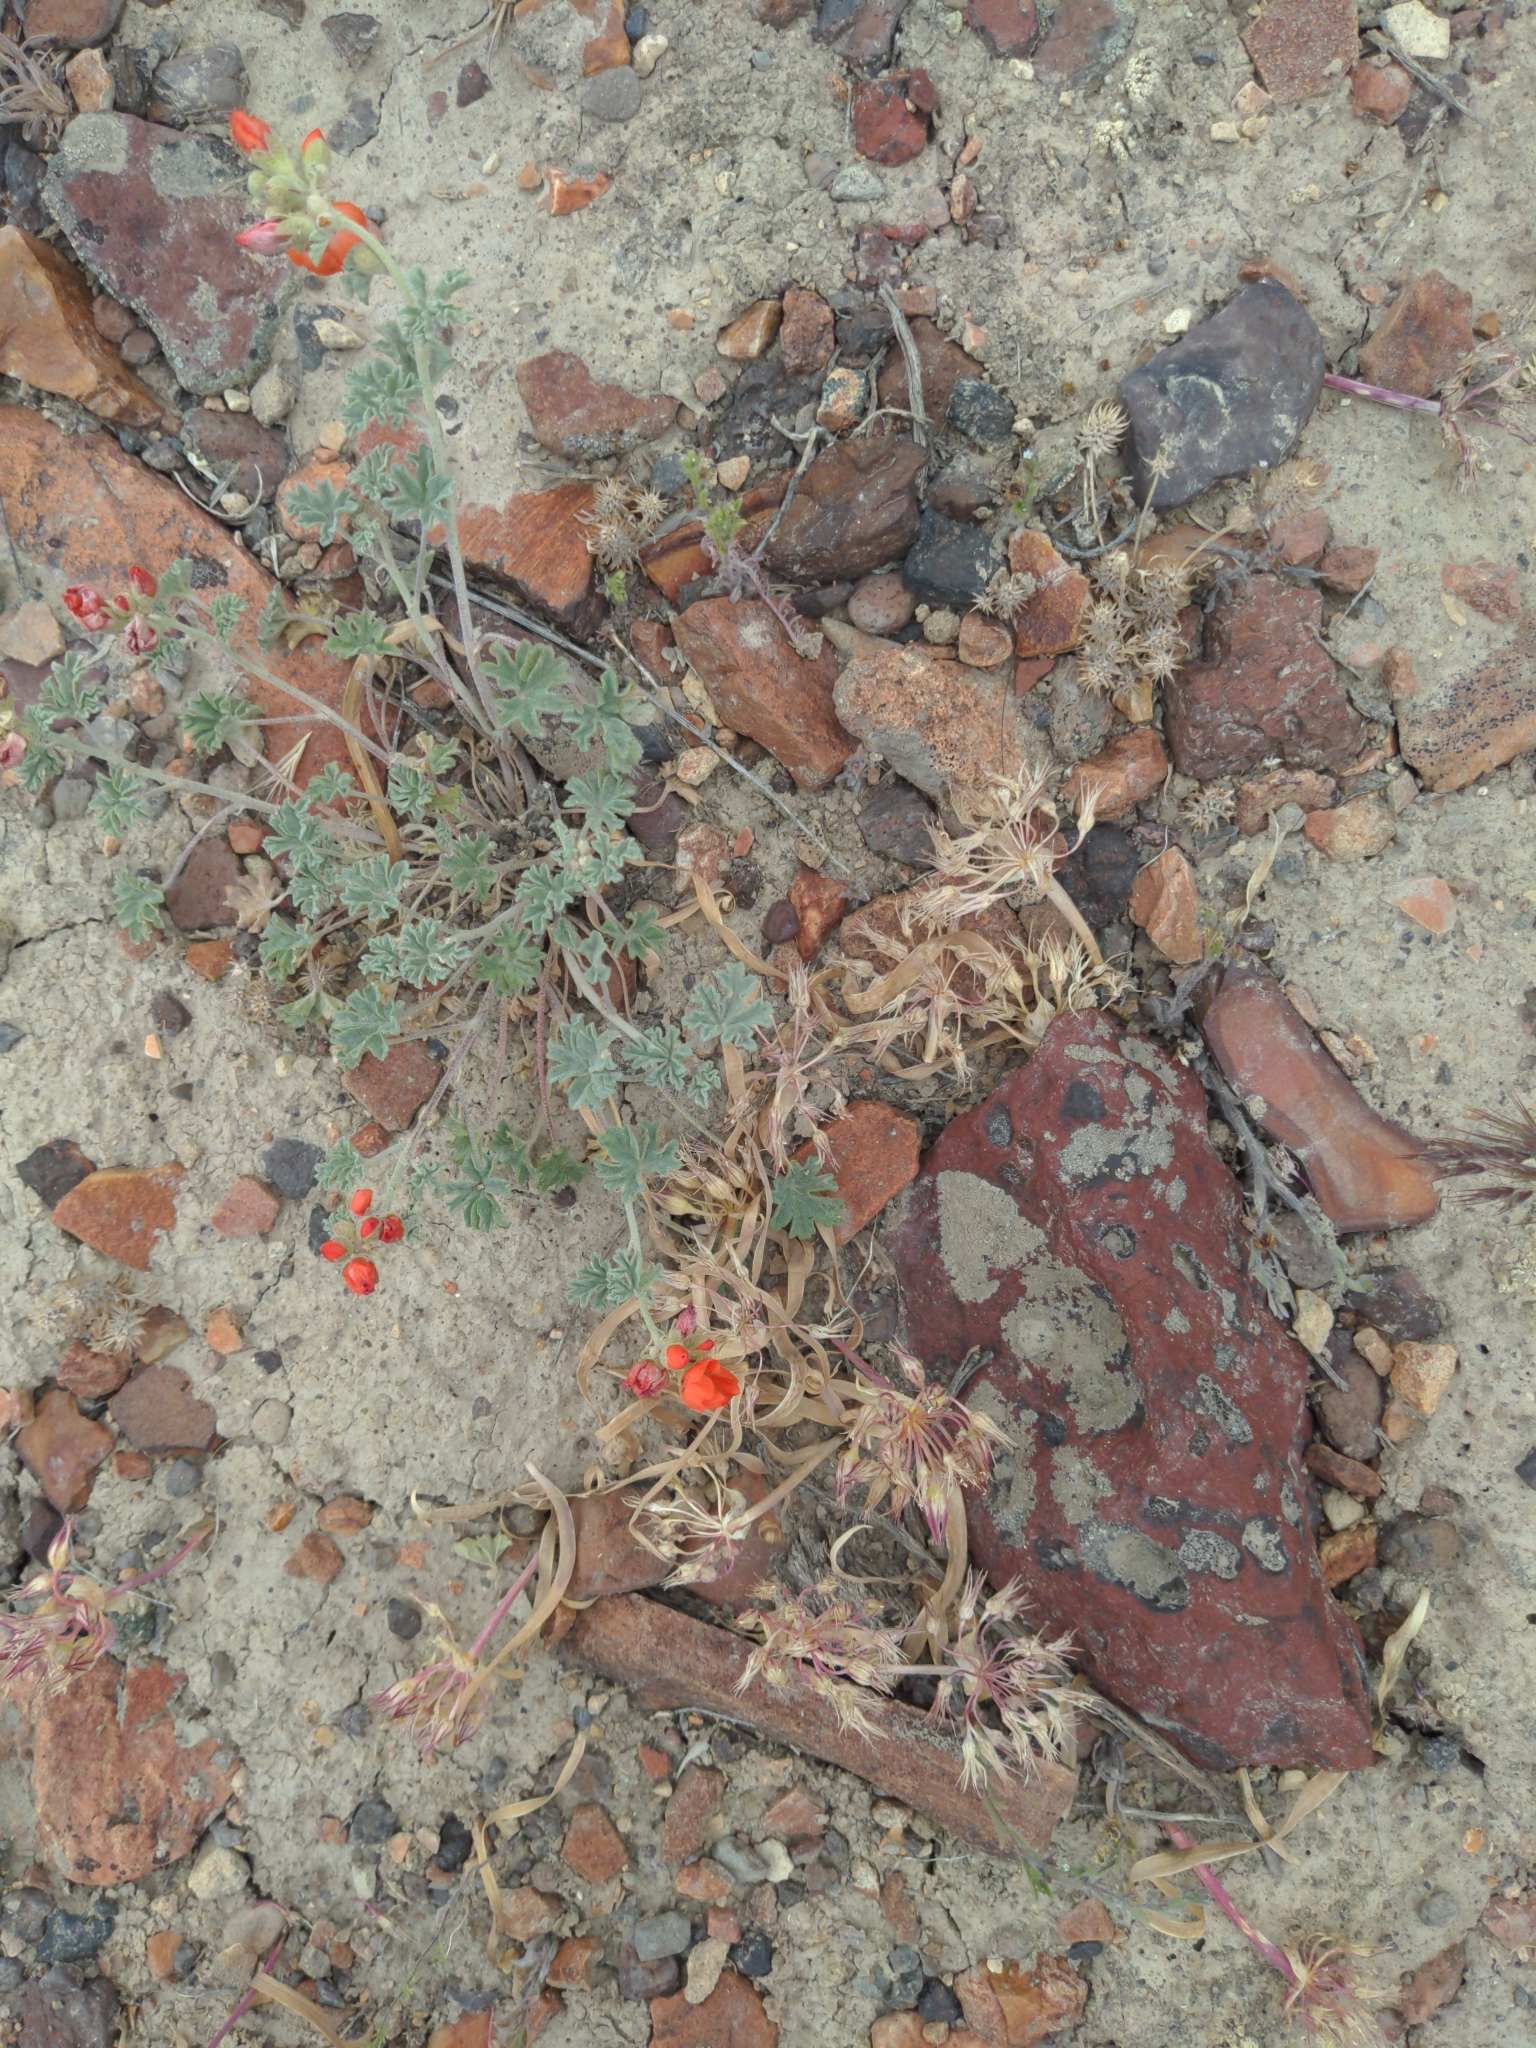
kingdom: Plantae
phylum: Tracheophyta
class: Magnoliopsida
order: Malvales
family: Malvaceae
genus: Sphaeralcea
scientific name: Sphaeralcea grossulariifolia
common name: Current-leaf globe-mallow
